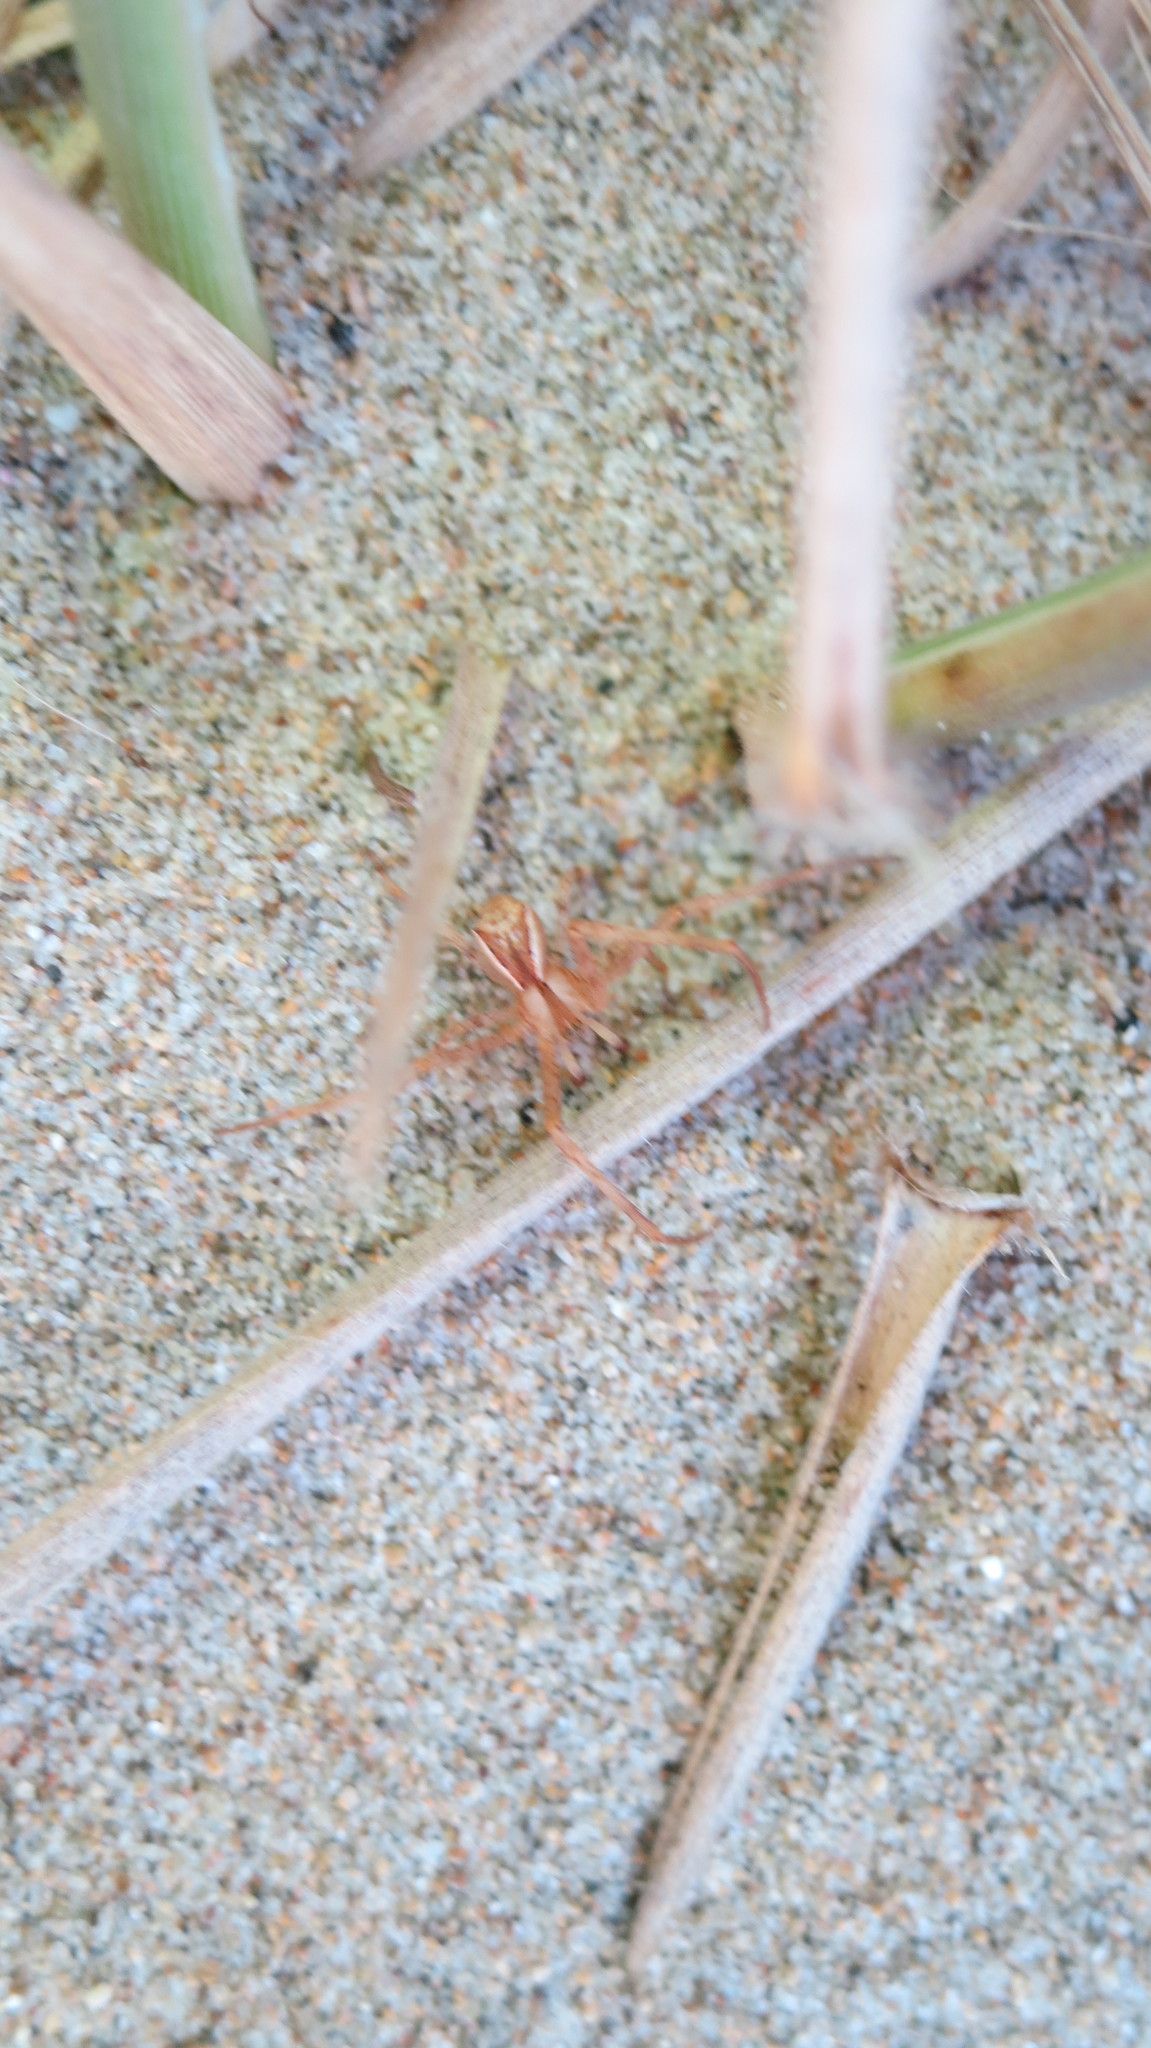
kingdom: Animalia
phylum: Arthropoda
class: Arachnida
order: Araneae
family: Thomisidae
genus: Sidymella
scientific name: Sidymella trapezia
